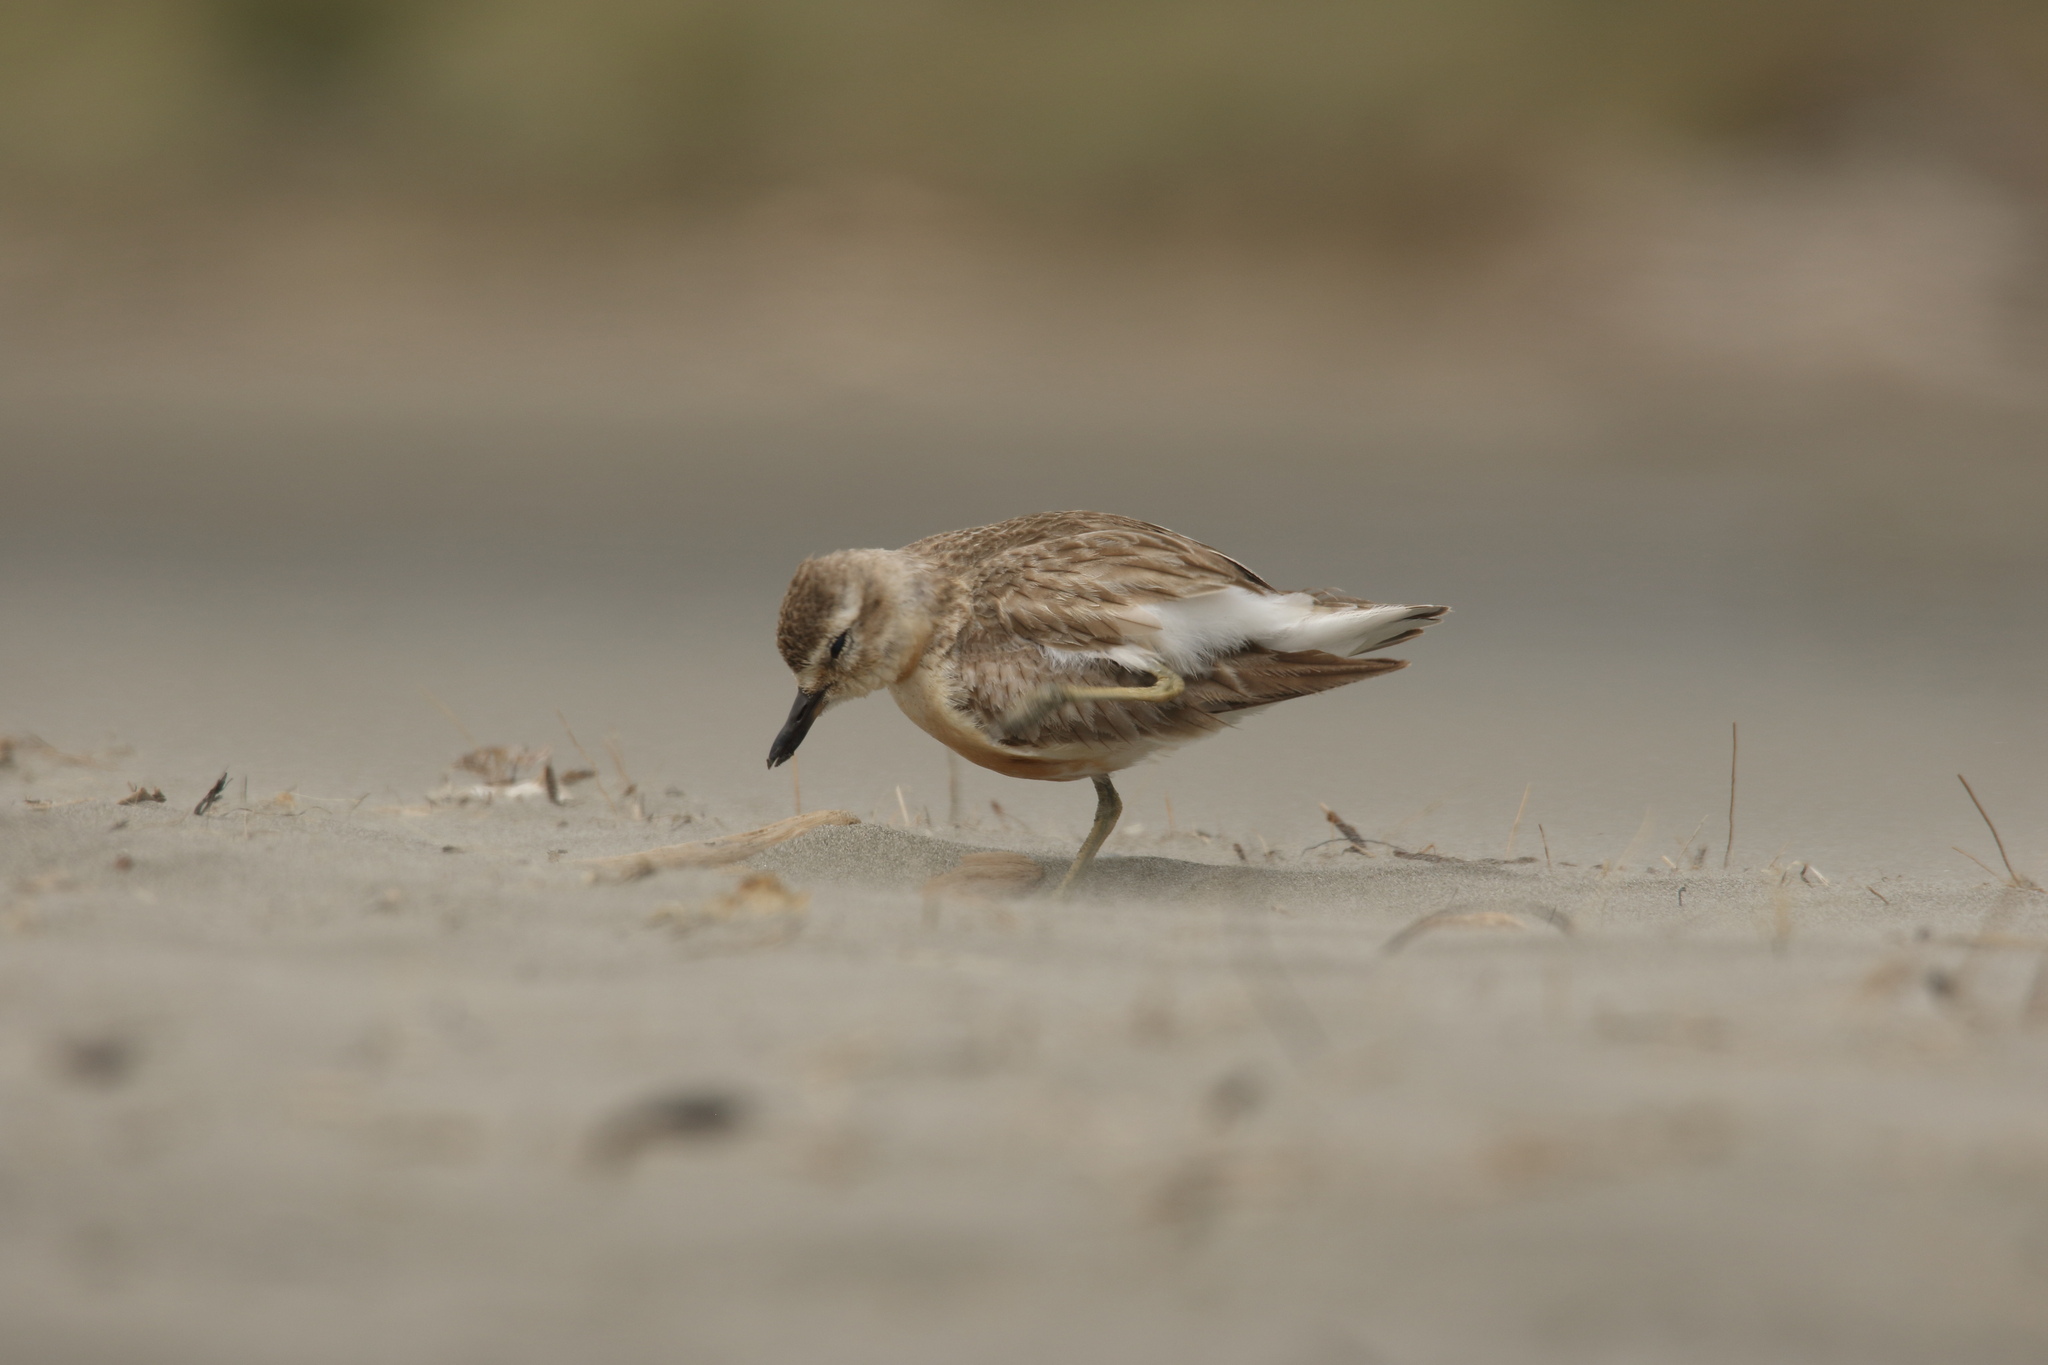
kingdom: Animalia
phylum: Chordata
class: Aves
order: Charadriiformes
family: Charadriidae
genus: Anarhynchus
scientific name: Anarhynchus
